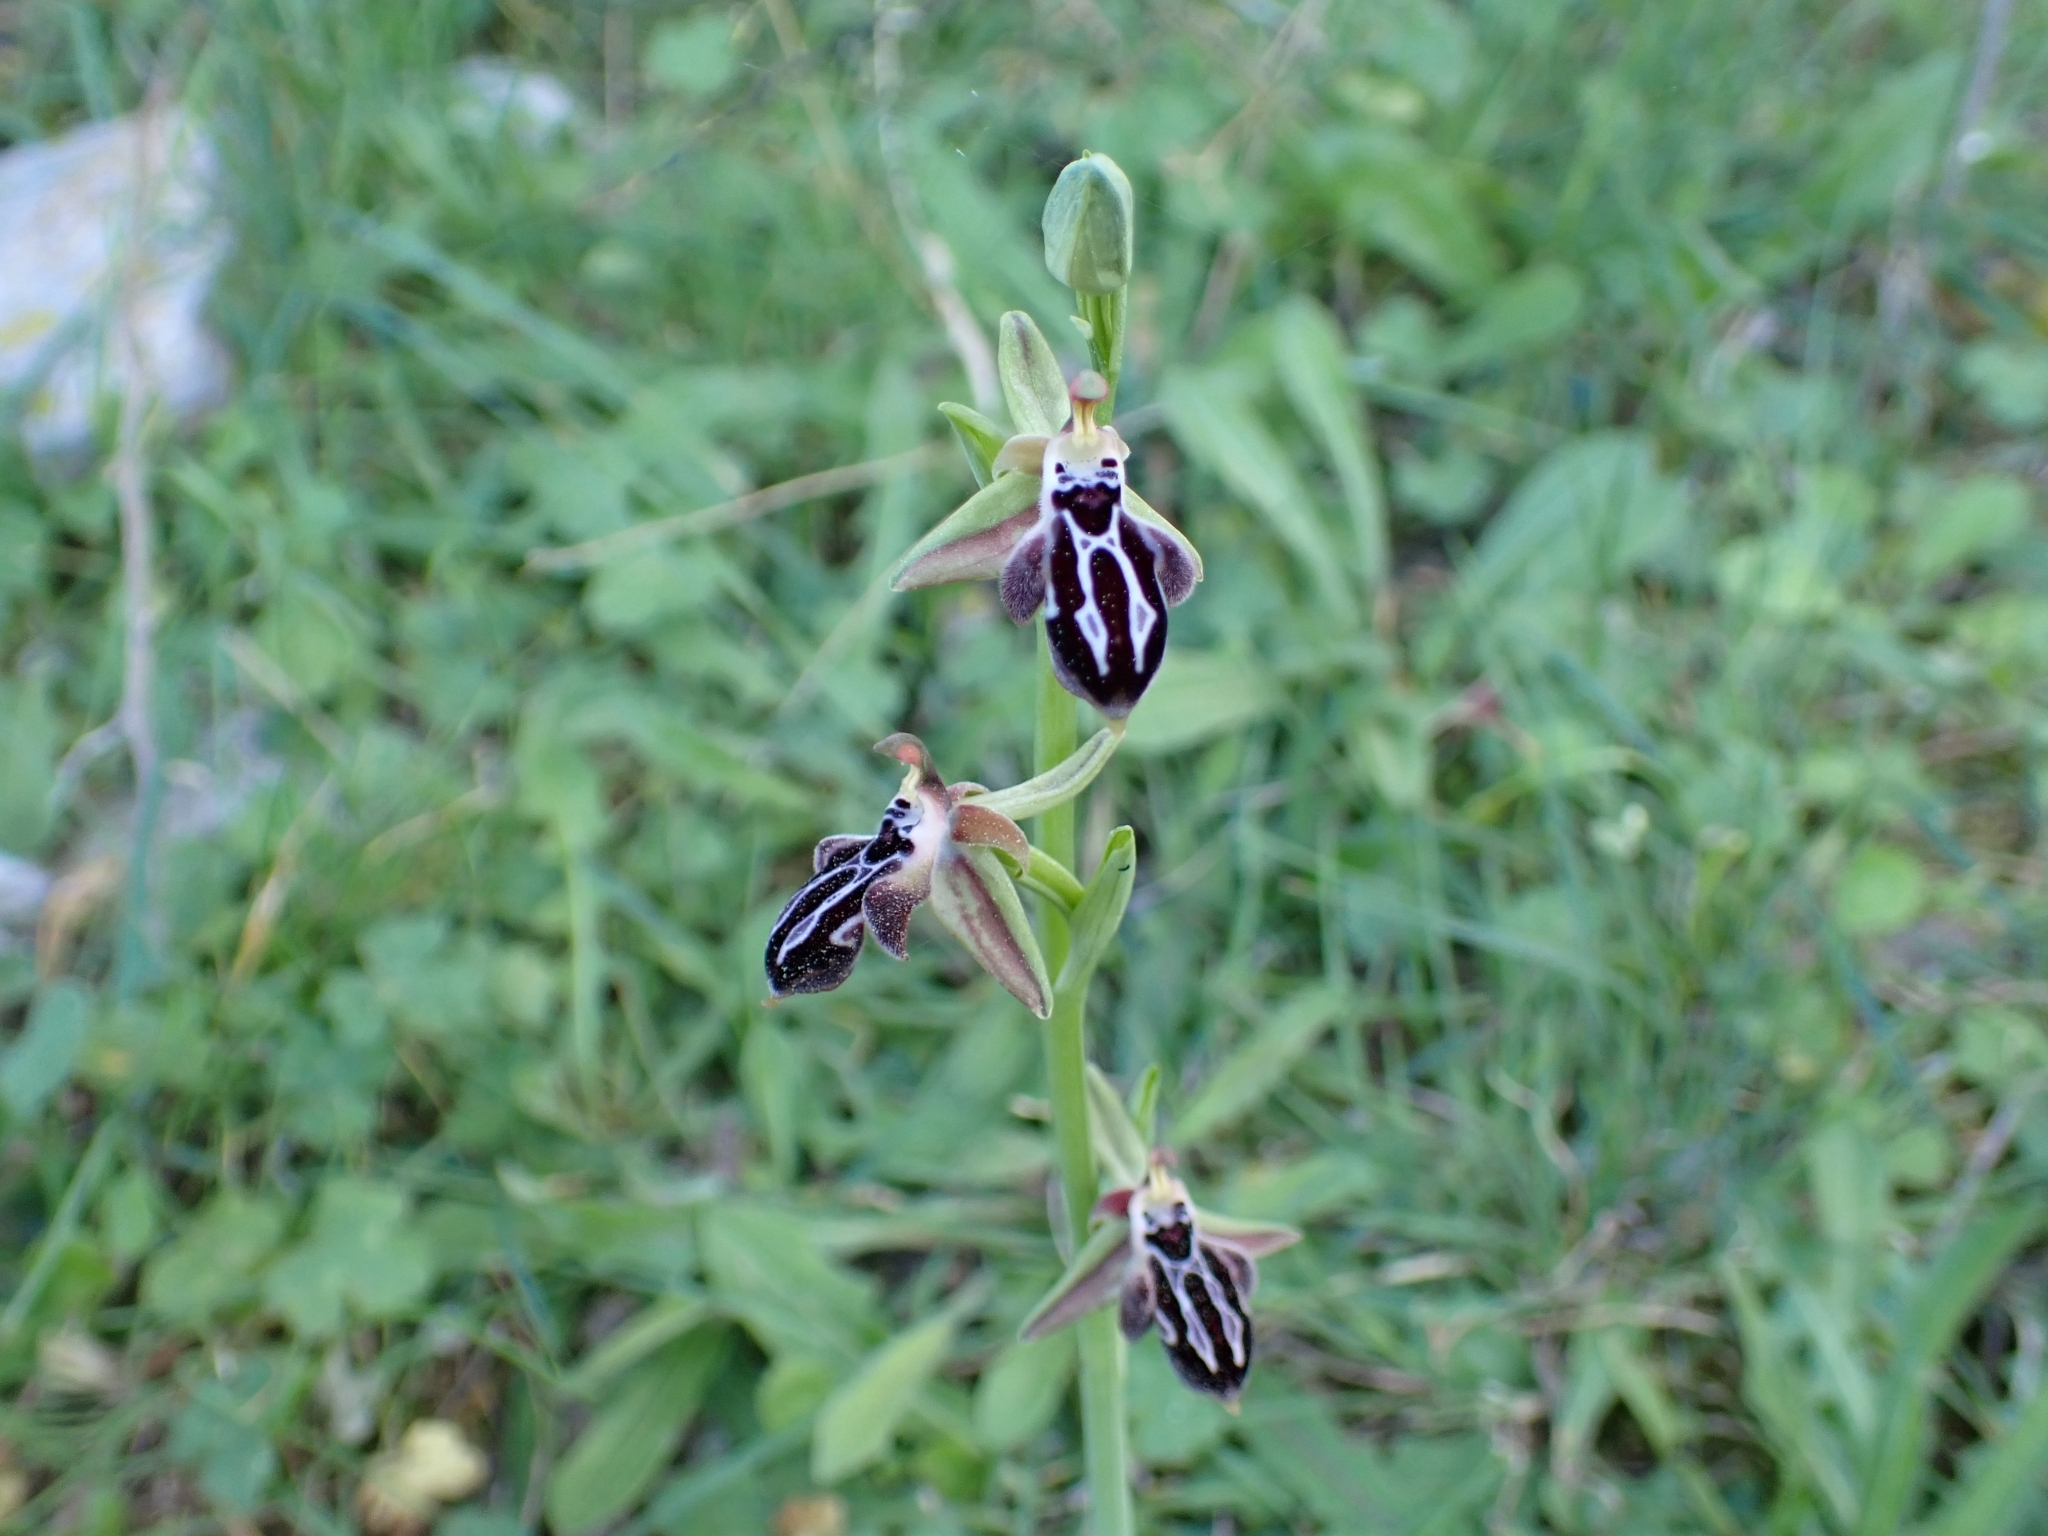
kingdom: Plantae
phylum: Tracheophyta
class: Liliopsida
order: Asparagales
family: Orchidaceae
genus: Ophrys
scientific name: Ophrys cretica
